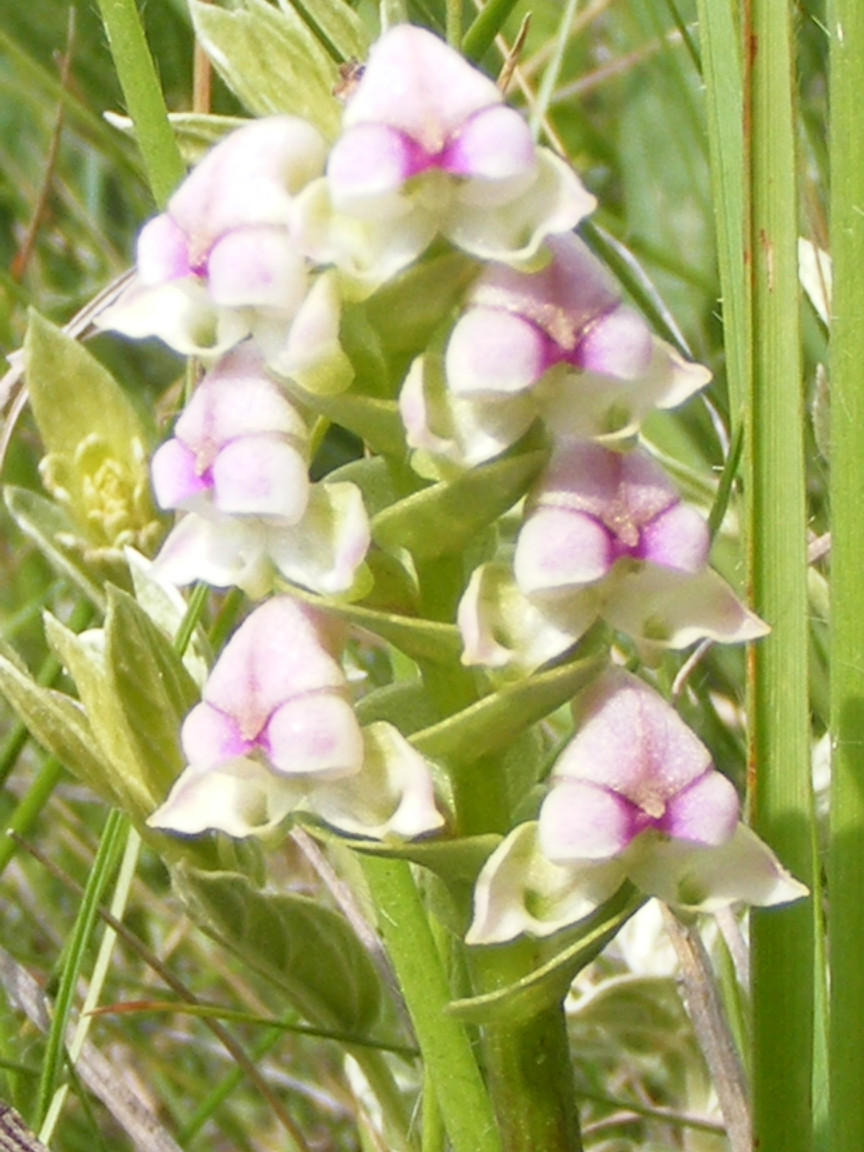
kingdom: Plantae
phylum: Tracheophyta
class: Liliopsida
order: Asparagales
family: Orchidaceae
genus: Disperis
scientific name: Disperis cardiophora
